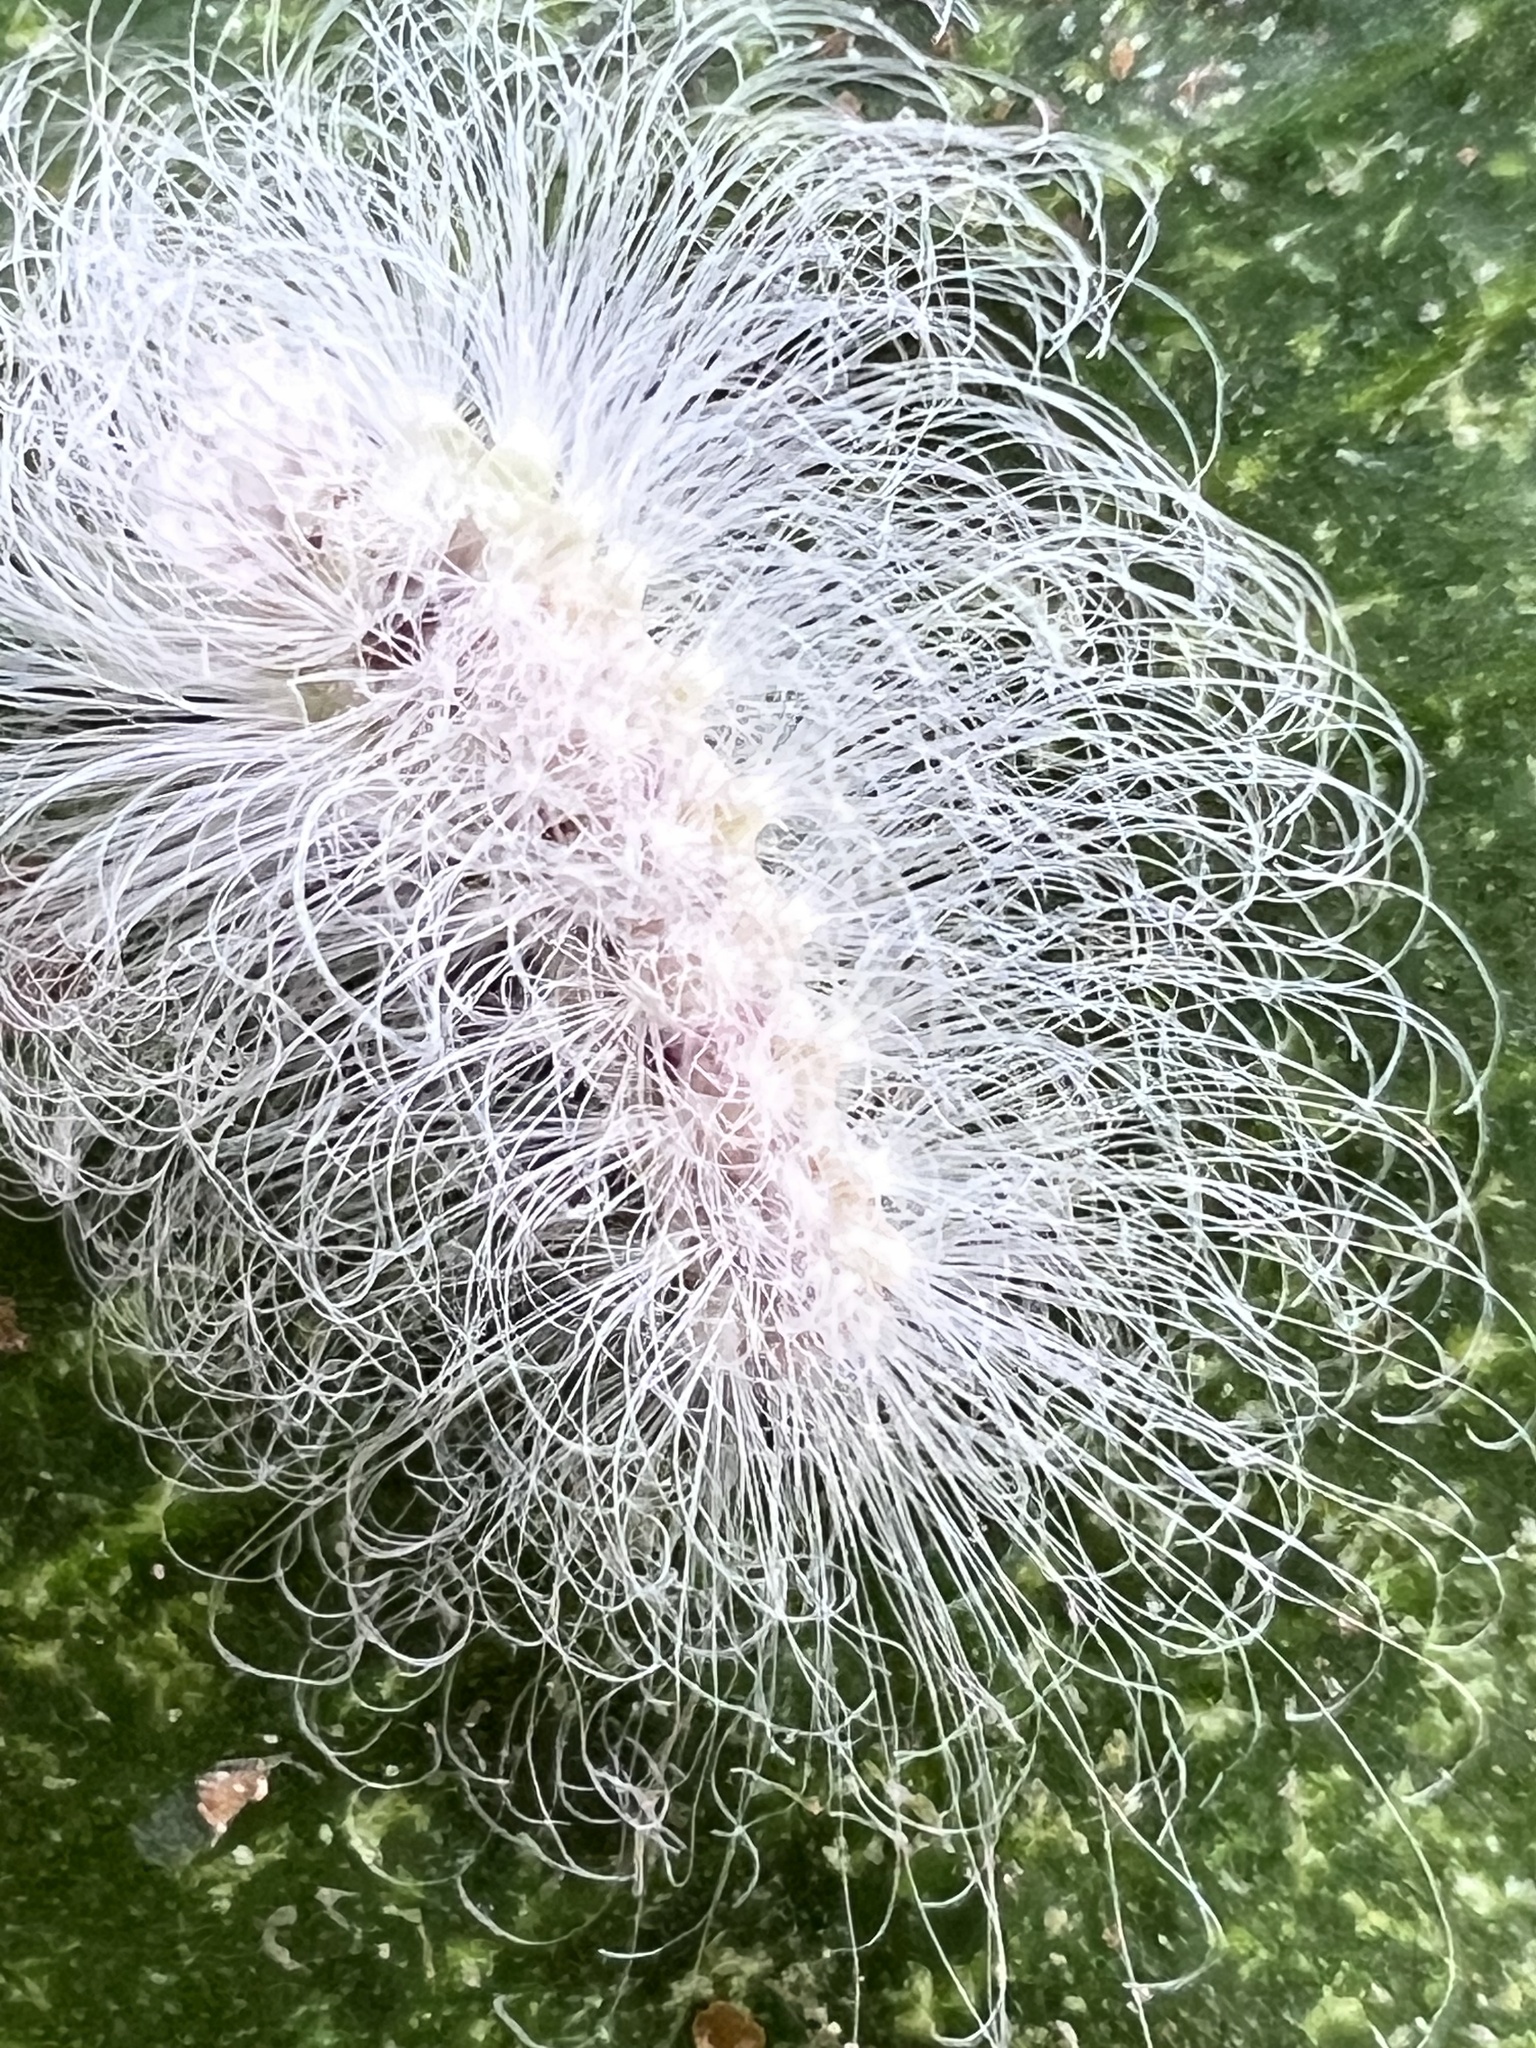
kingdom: Animalia
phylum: Arthropoda
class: Insecta
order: Lepidoptera
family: Erebidae
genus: Eudesmia
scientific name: Eudesmia menea
